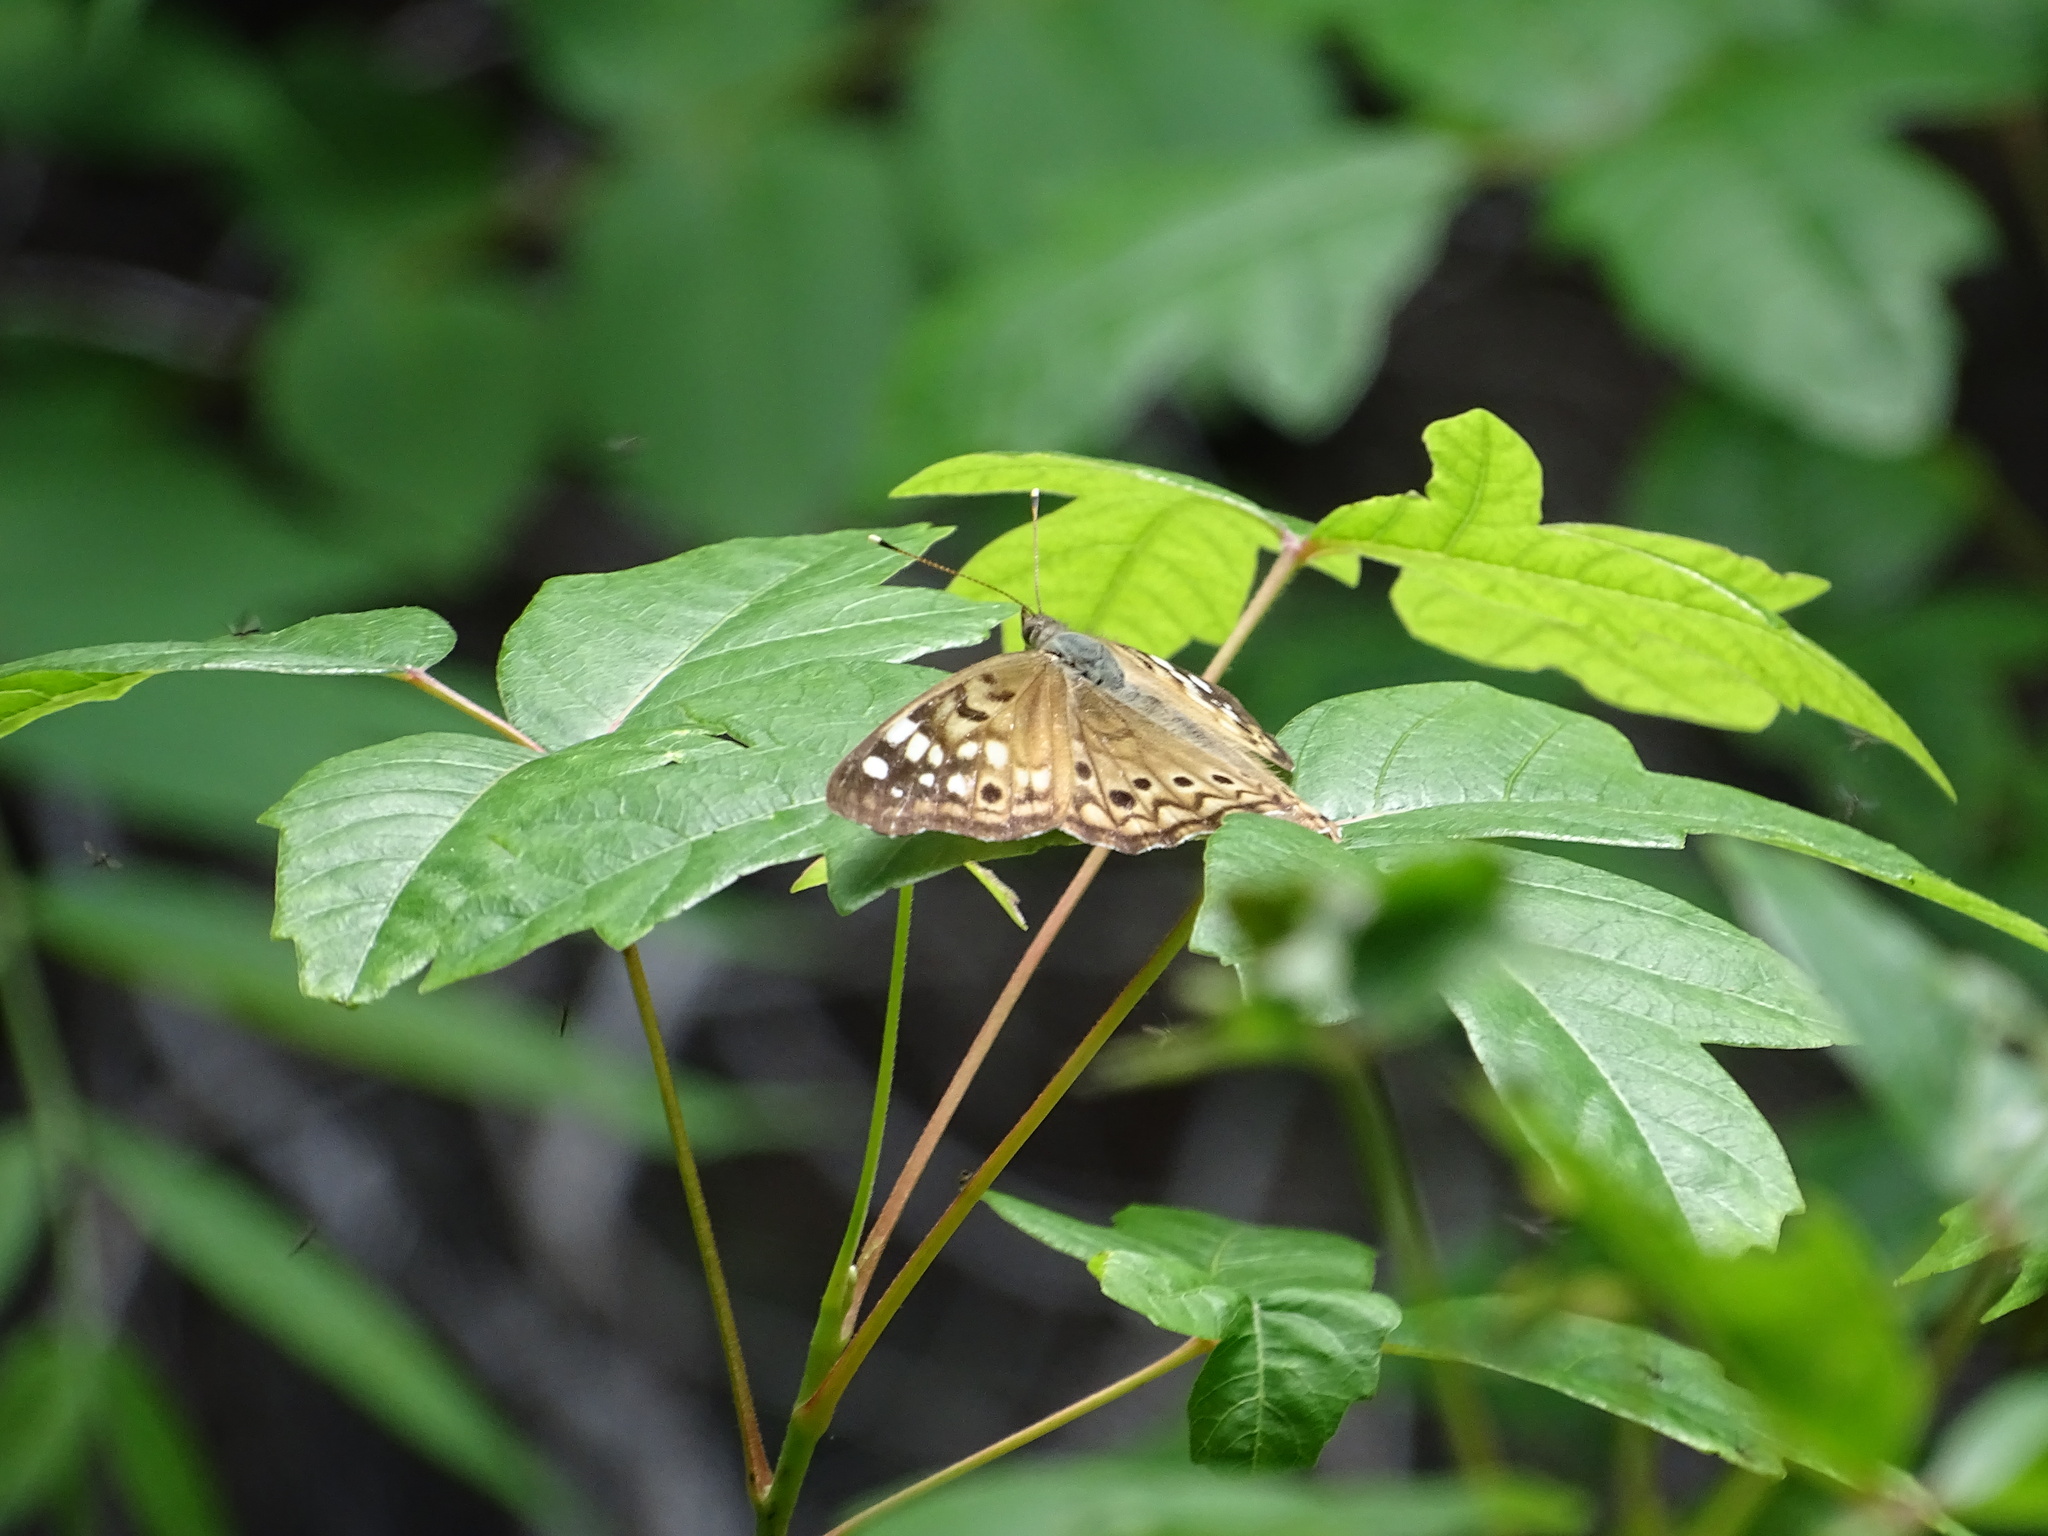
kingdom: Animalia
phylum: Arthropoda
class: Insecta
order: Lepidoptera
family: Nymphalidae
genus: Asterocampa
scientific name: Asterocampa celtis
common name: Hackberry emperor
